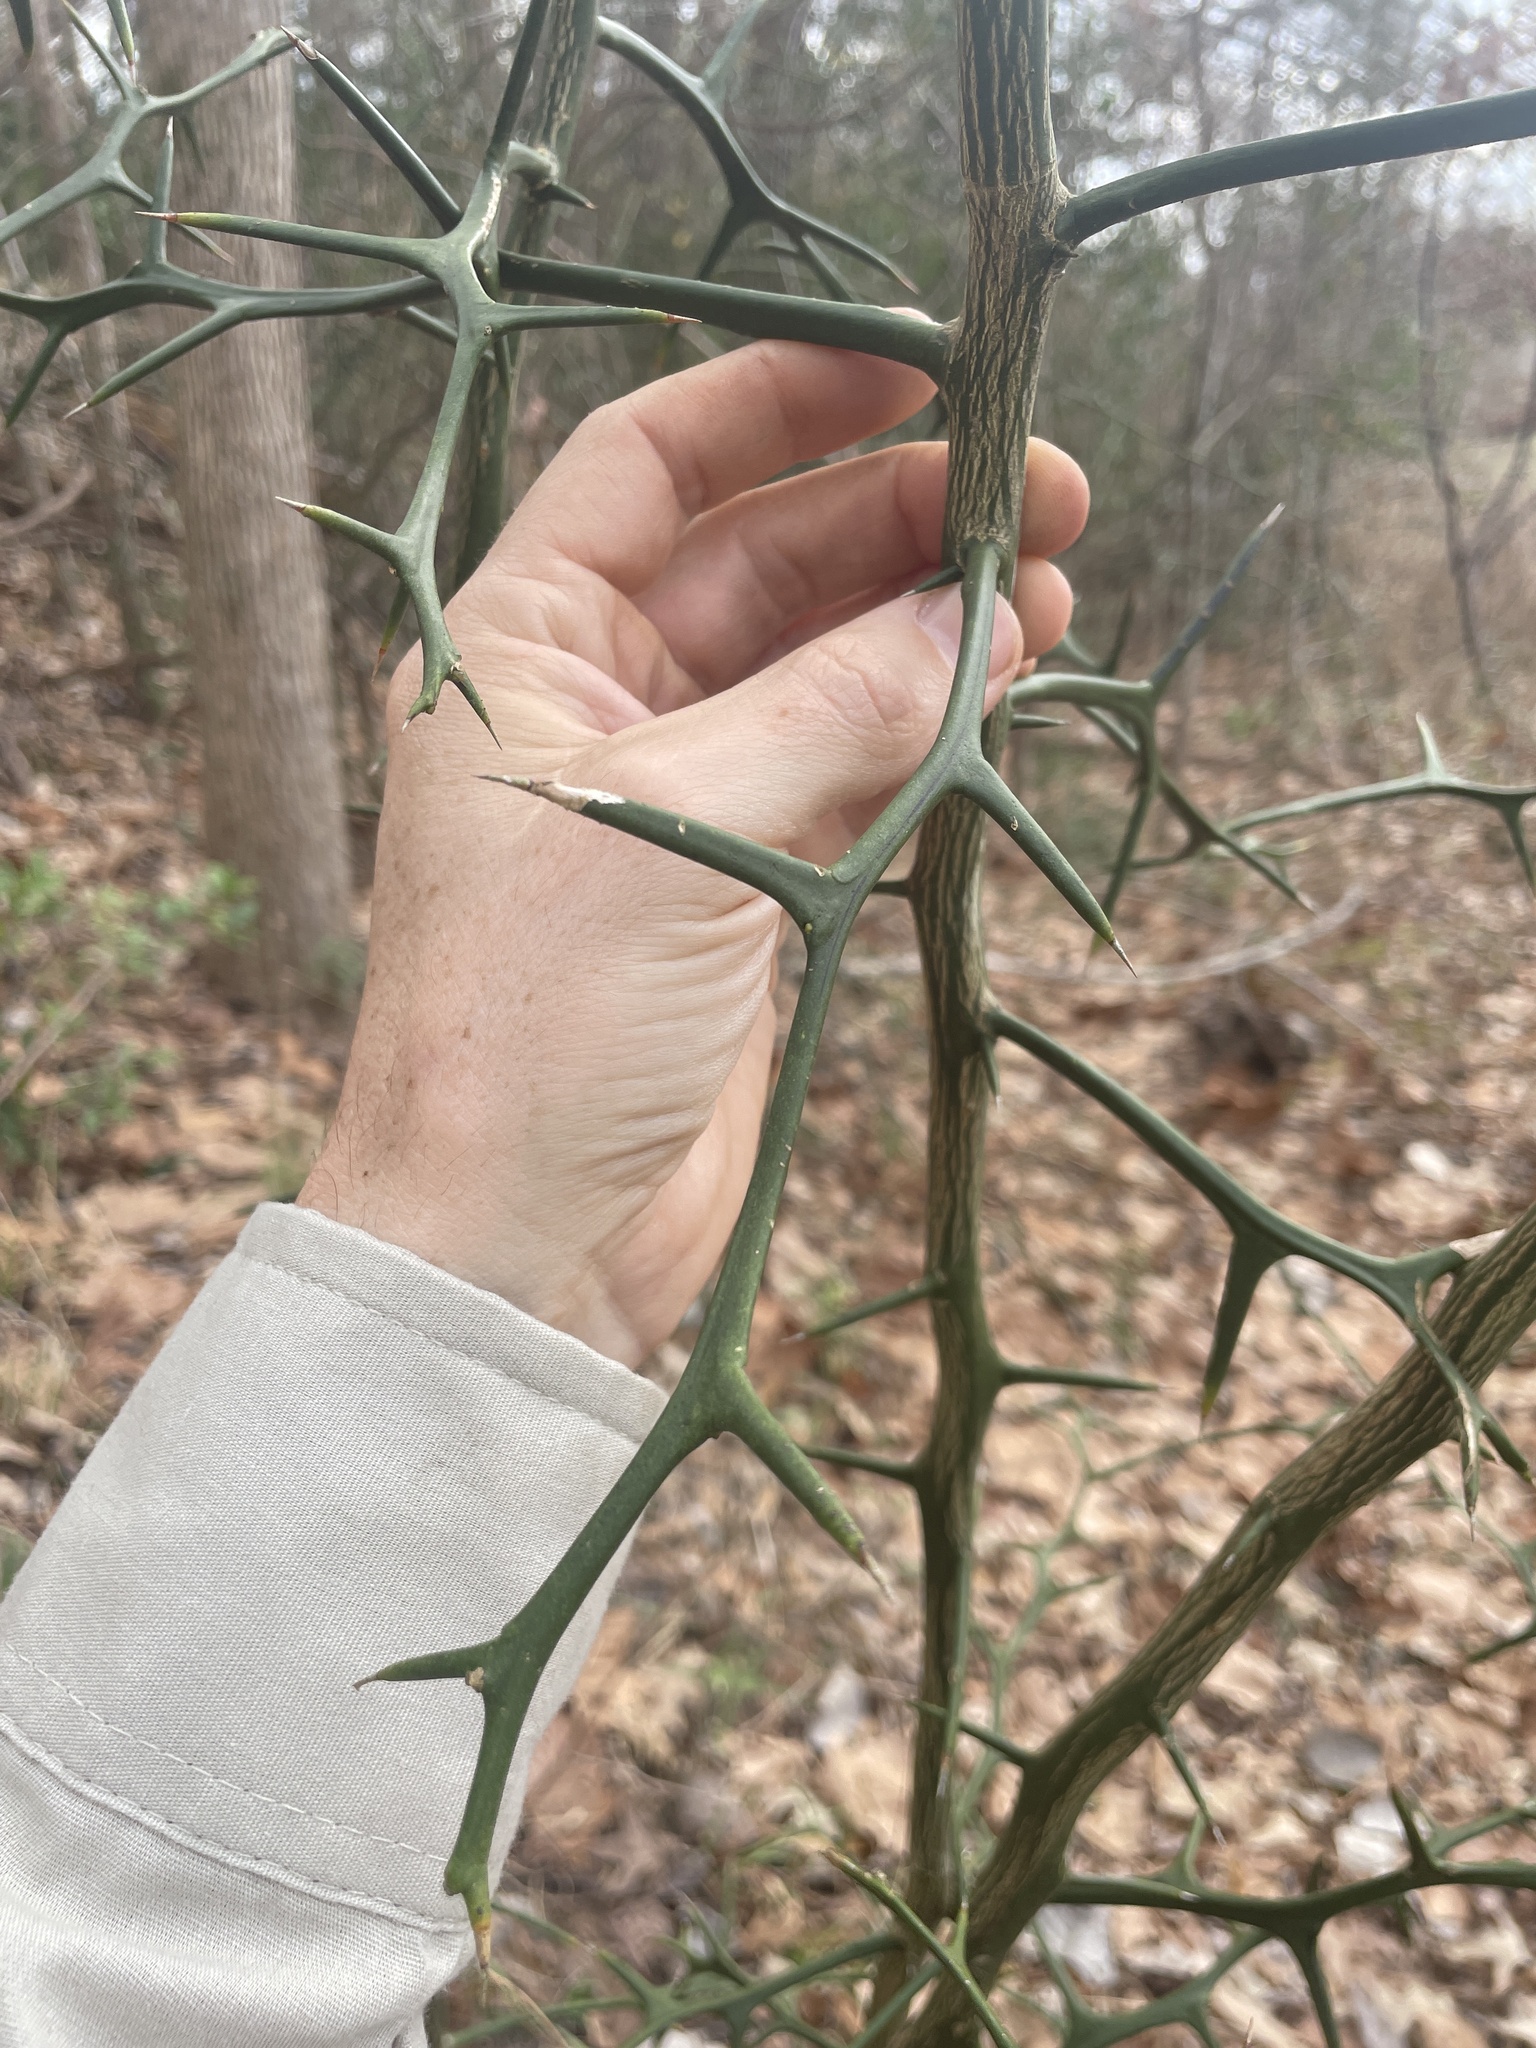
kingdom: Plantae
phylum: Tracheophyta
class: Magnoliopsida
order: Sapindales
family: Rutaceae
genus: Citrus
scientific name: Citrus trifoliata
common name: Japanese bitter-orange
